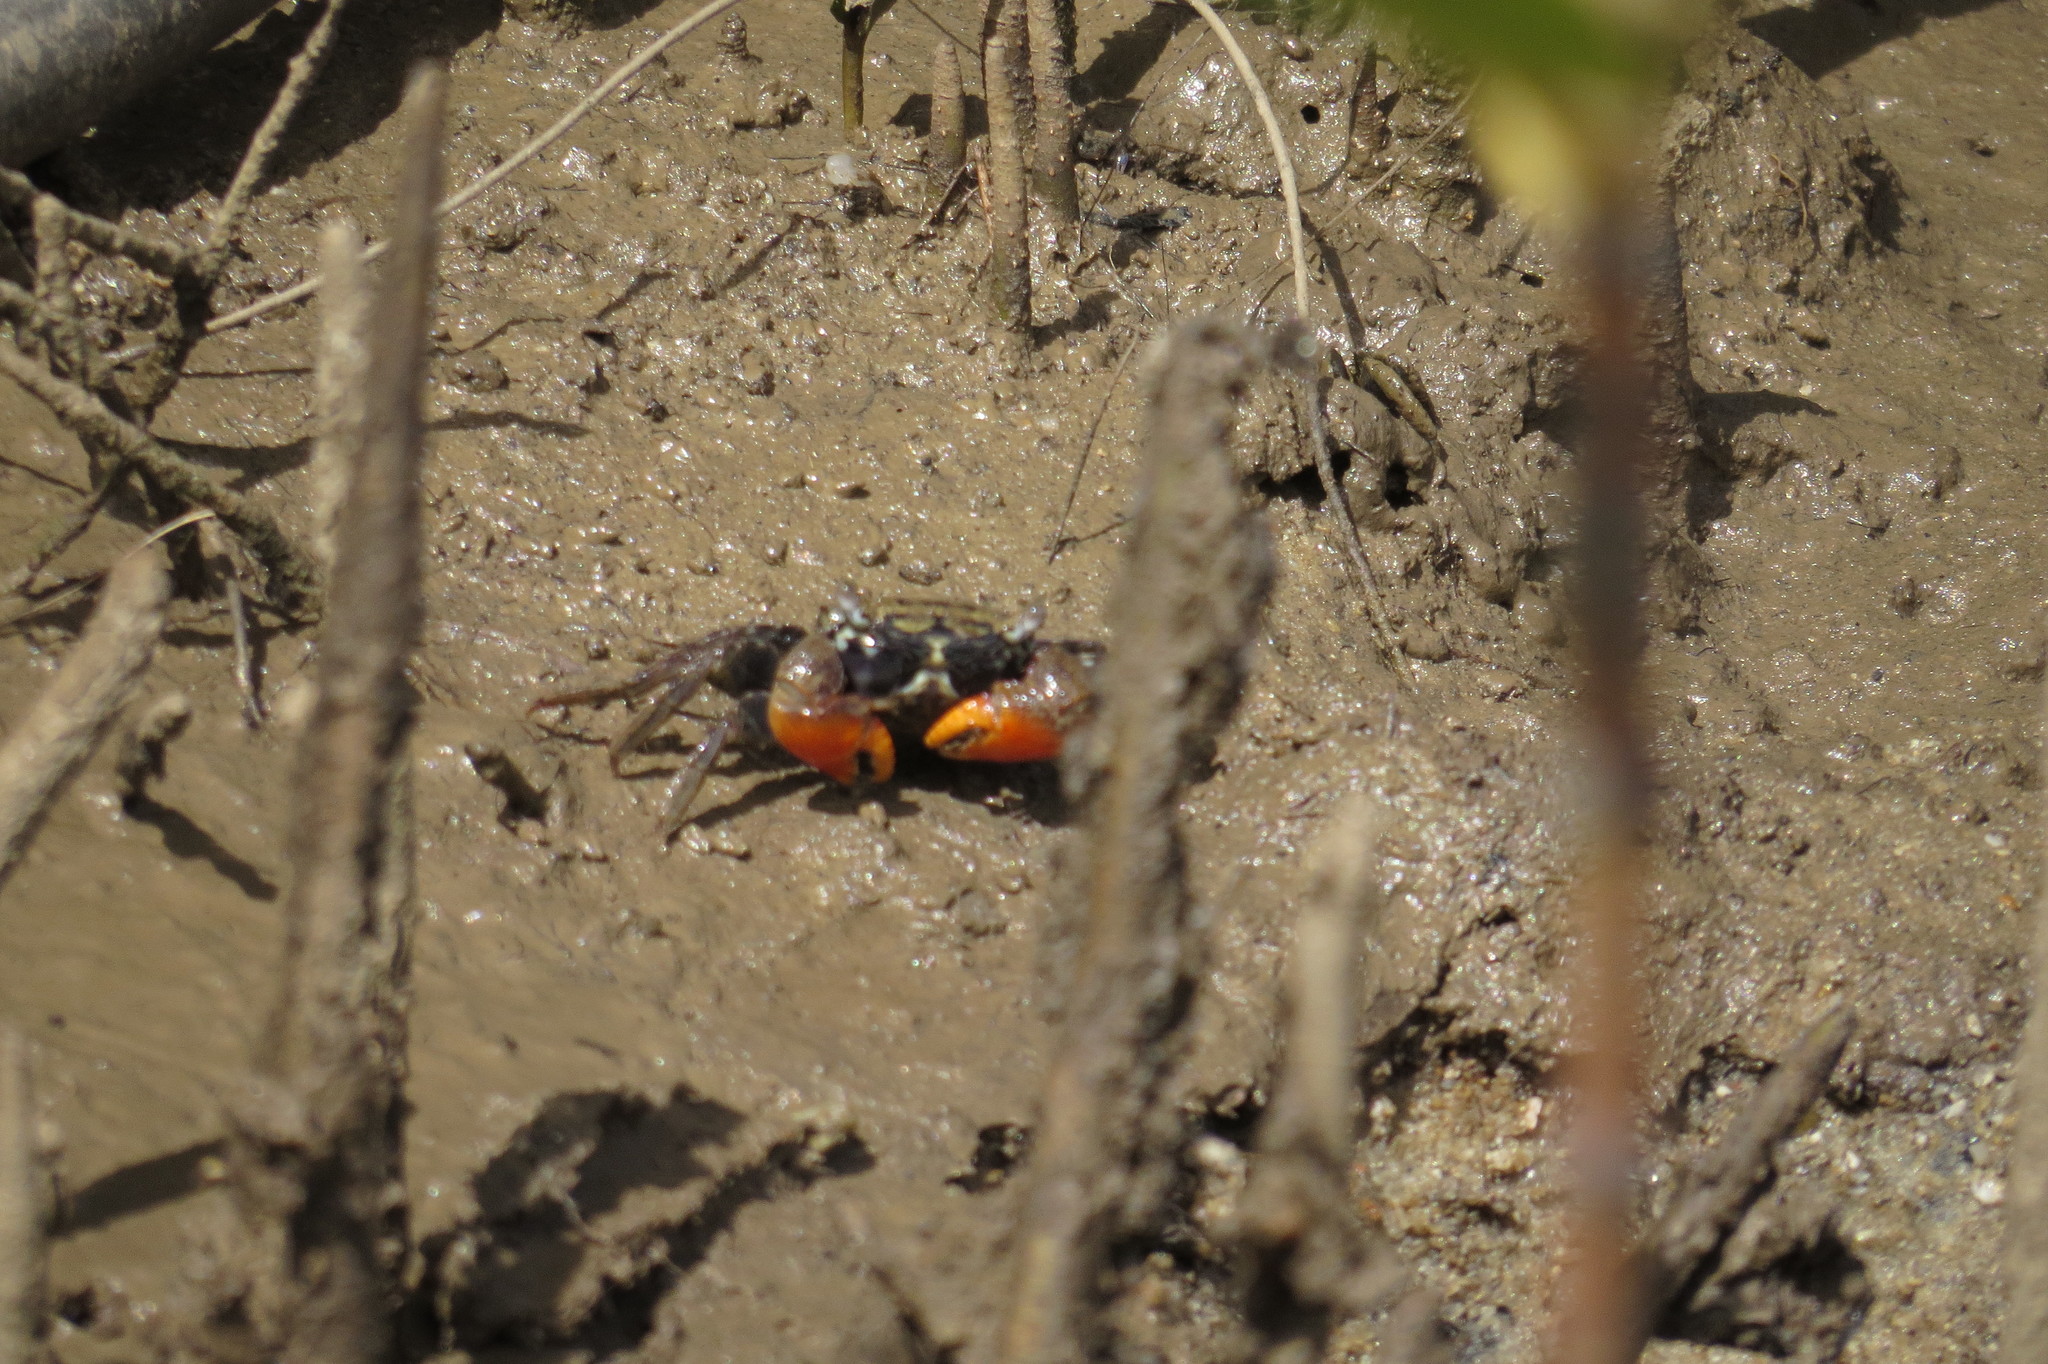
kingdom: Animalia
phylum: Arthropoda
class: Malacostraca
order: Decapoda
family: Sesarmidae
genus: Parasesarma
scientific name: Parasesarma longicristatum
